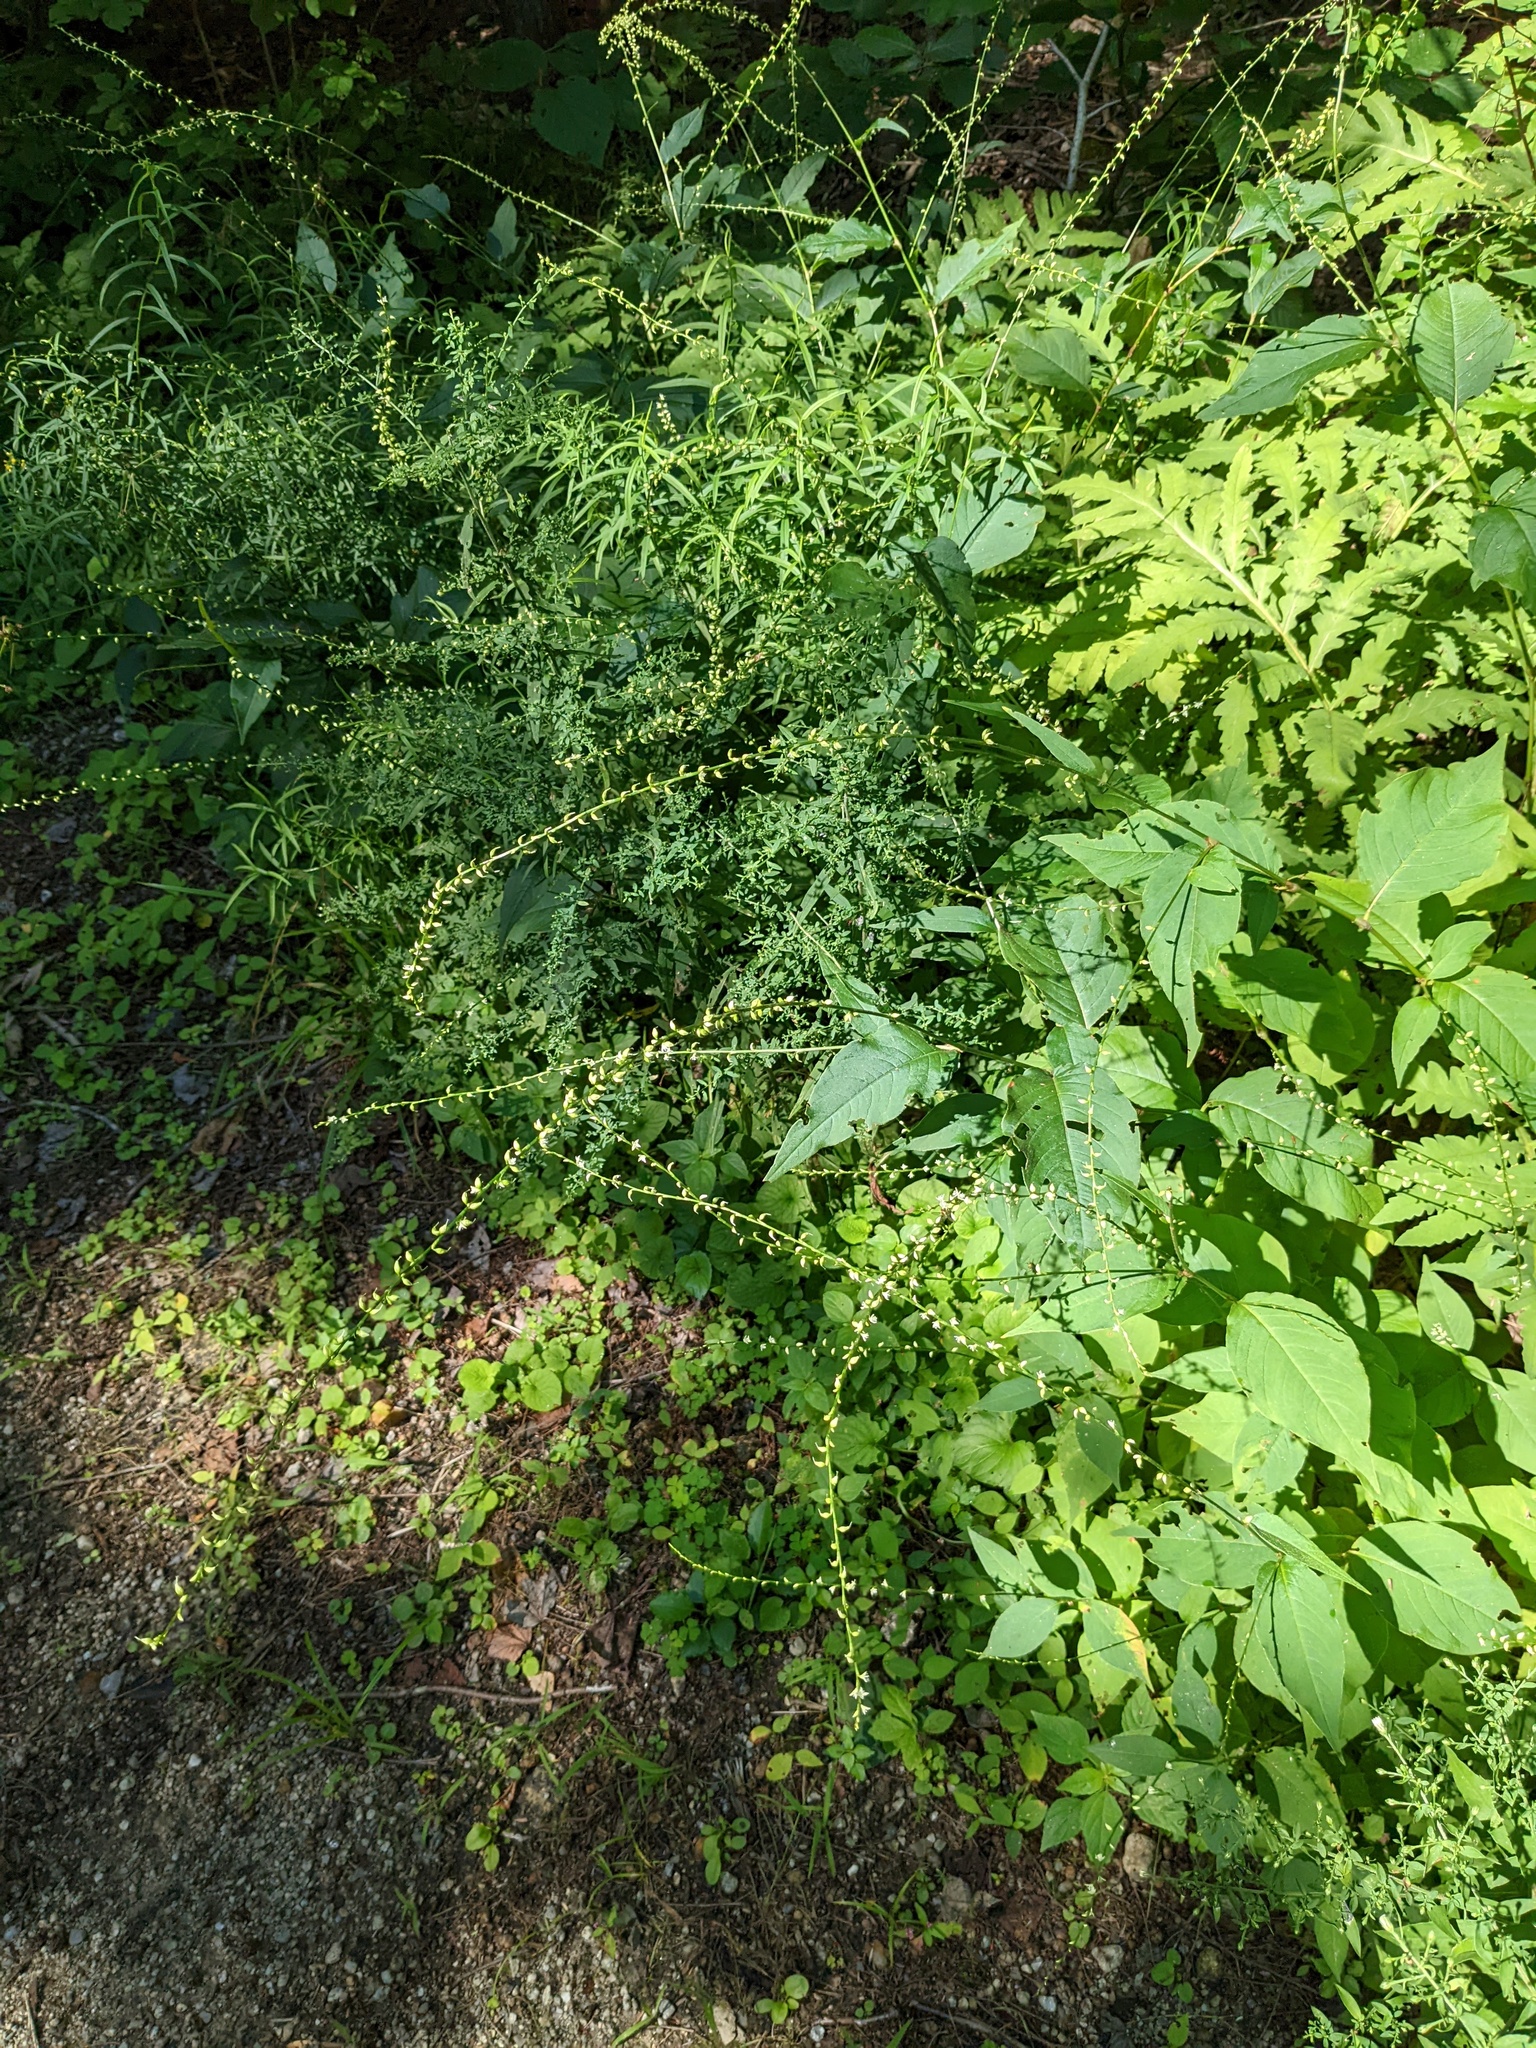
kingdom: Plantae
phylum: Tracheophyta
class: Magnoliopsida
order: Caryophyllales
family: Polygonaceae
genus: Persicaria
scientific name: Persicaria virginiana
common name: Jumpseed
